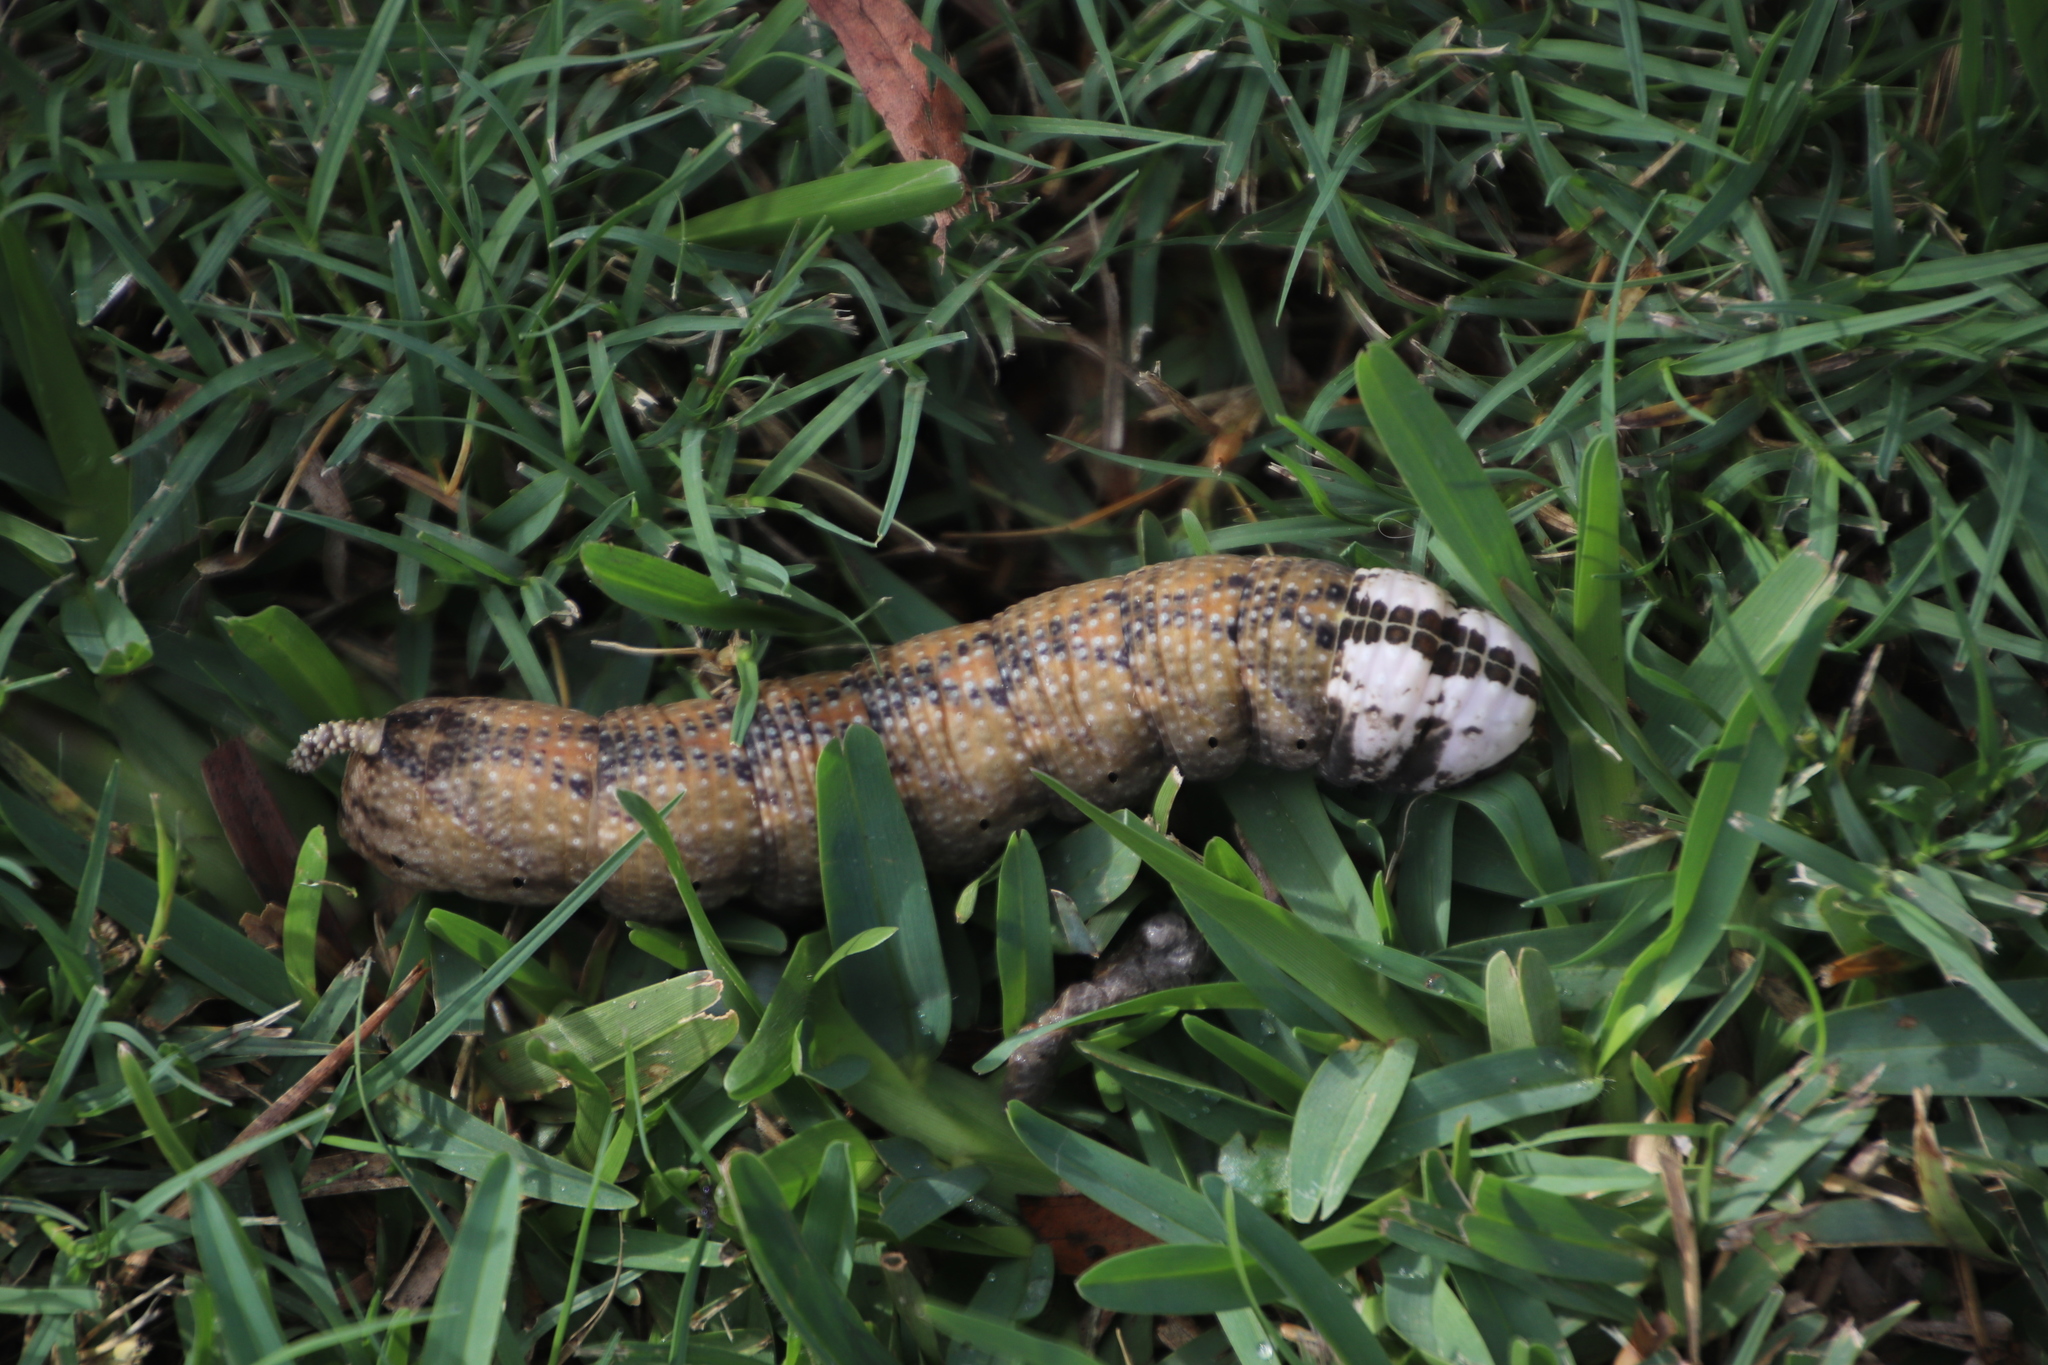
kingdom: Animalia
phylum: Arthropoda
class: Insecta
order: Lepidoptera
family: Sphingidae
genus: Acherontia
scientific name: Acherontia atropos
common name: Death's-head hawk moth
